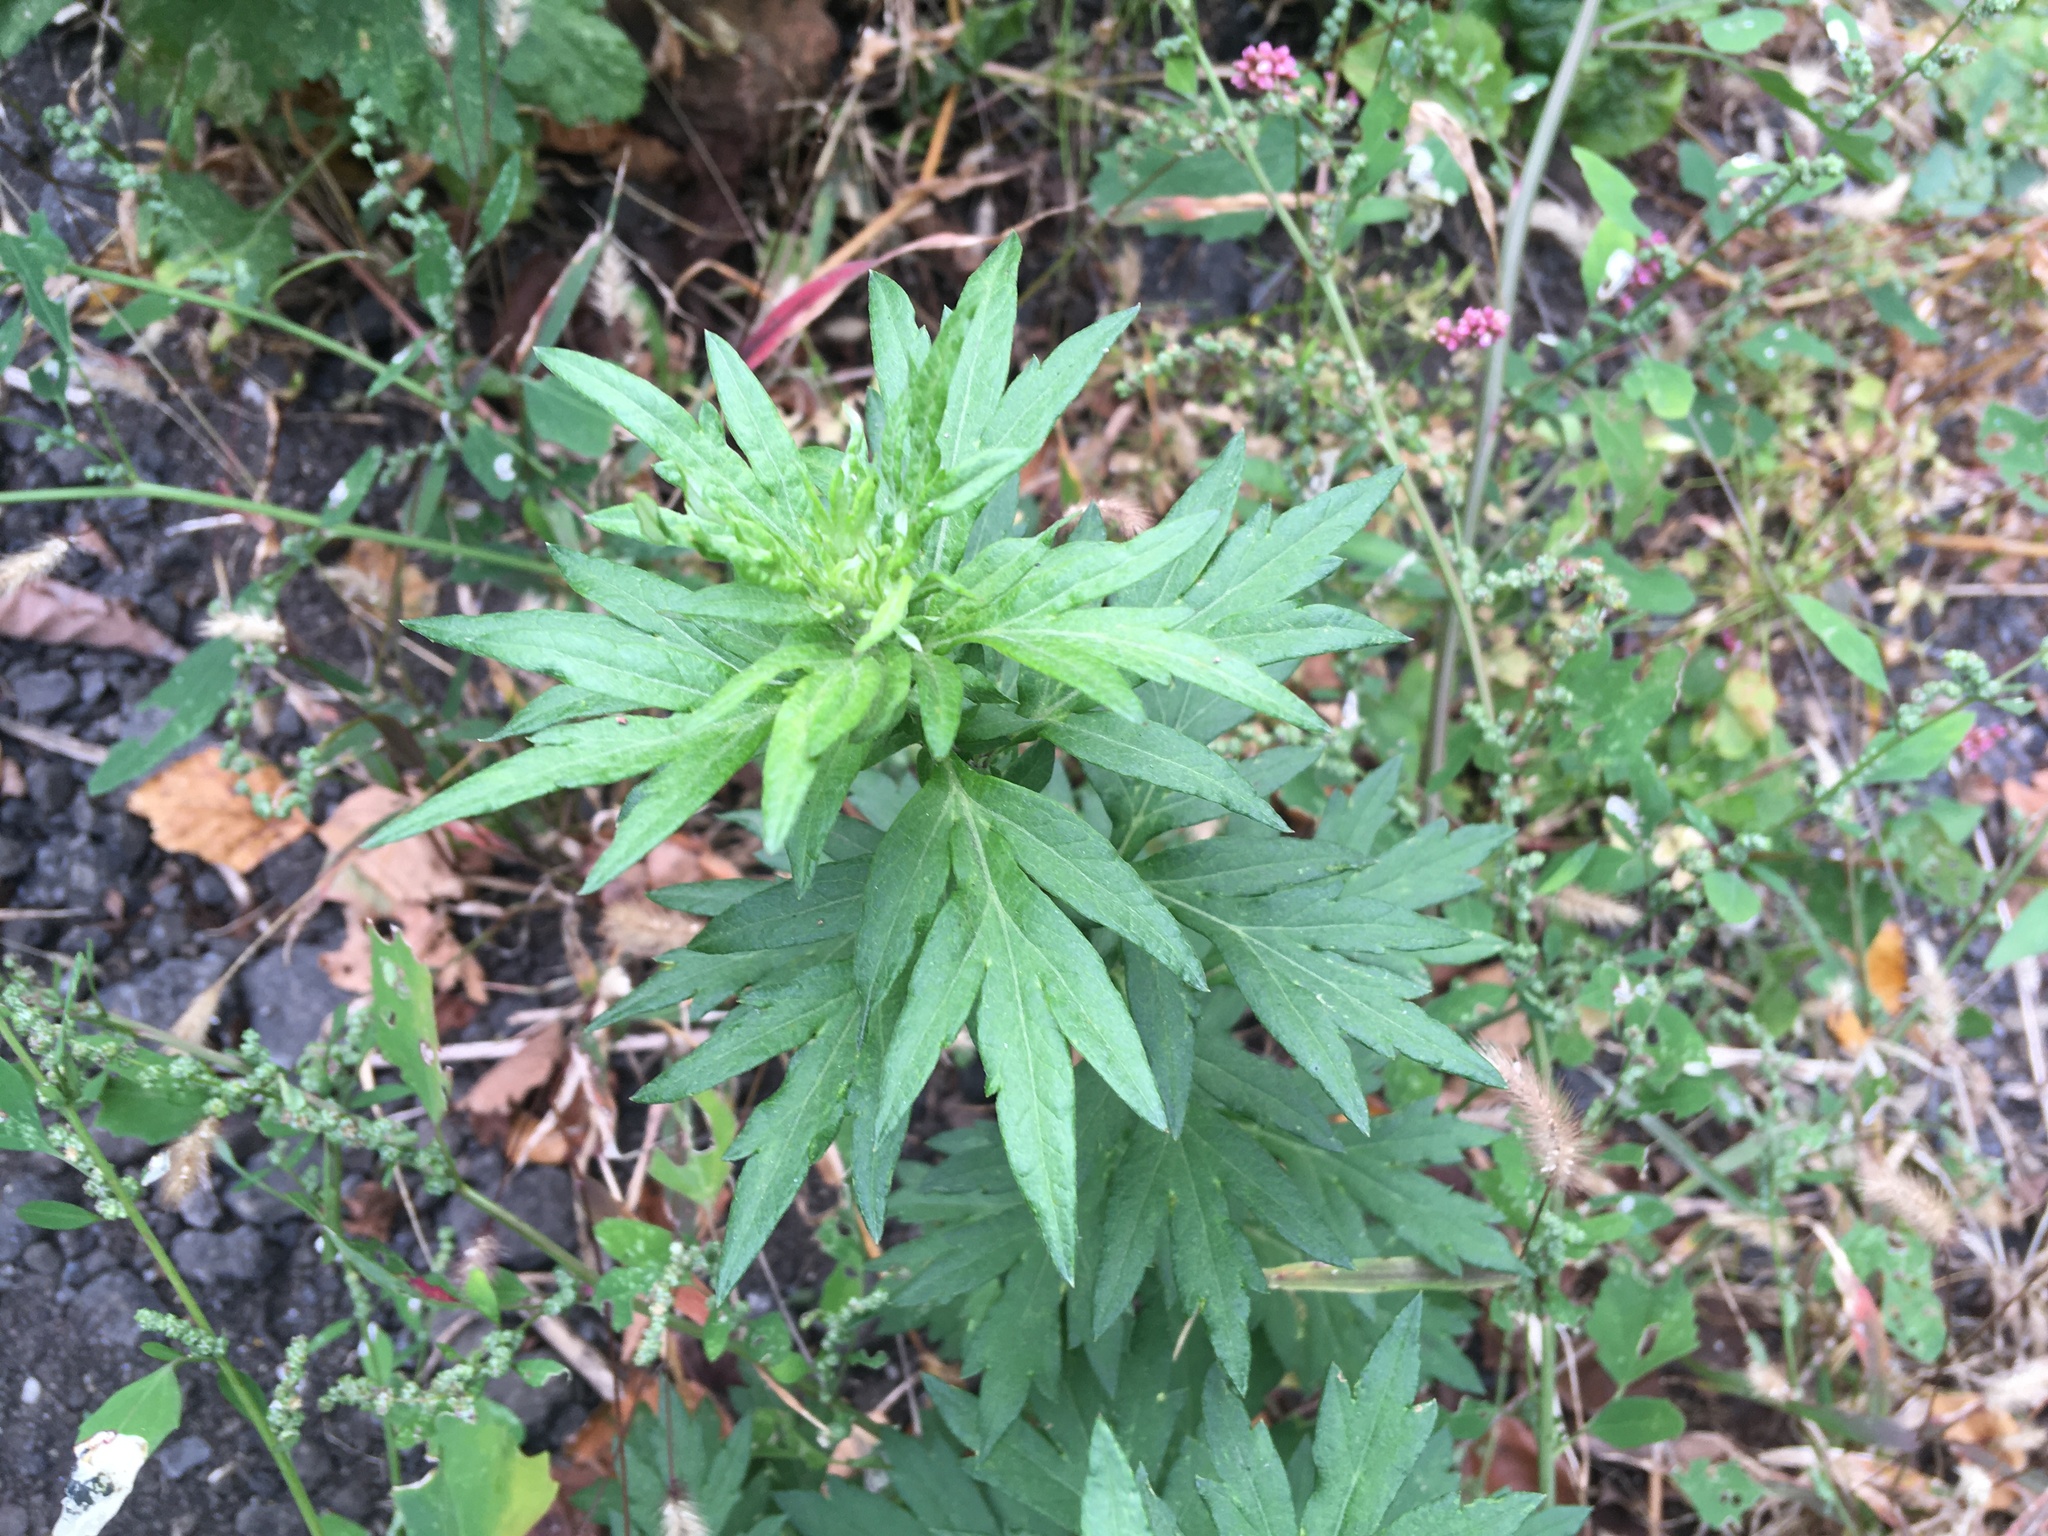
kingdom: Plantae
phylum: Tracheophyta
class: Magnoliopsida
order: Asterales
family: Asteraceae
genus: Artemisia
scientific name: Artemisia vulgaris
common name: Mugwort
